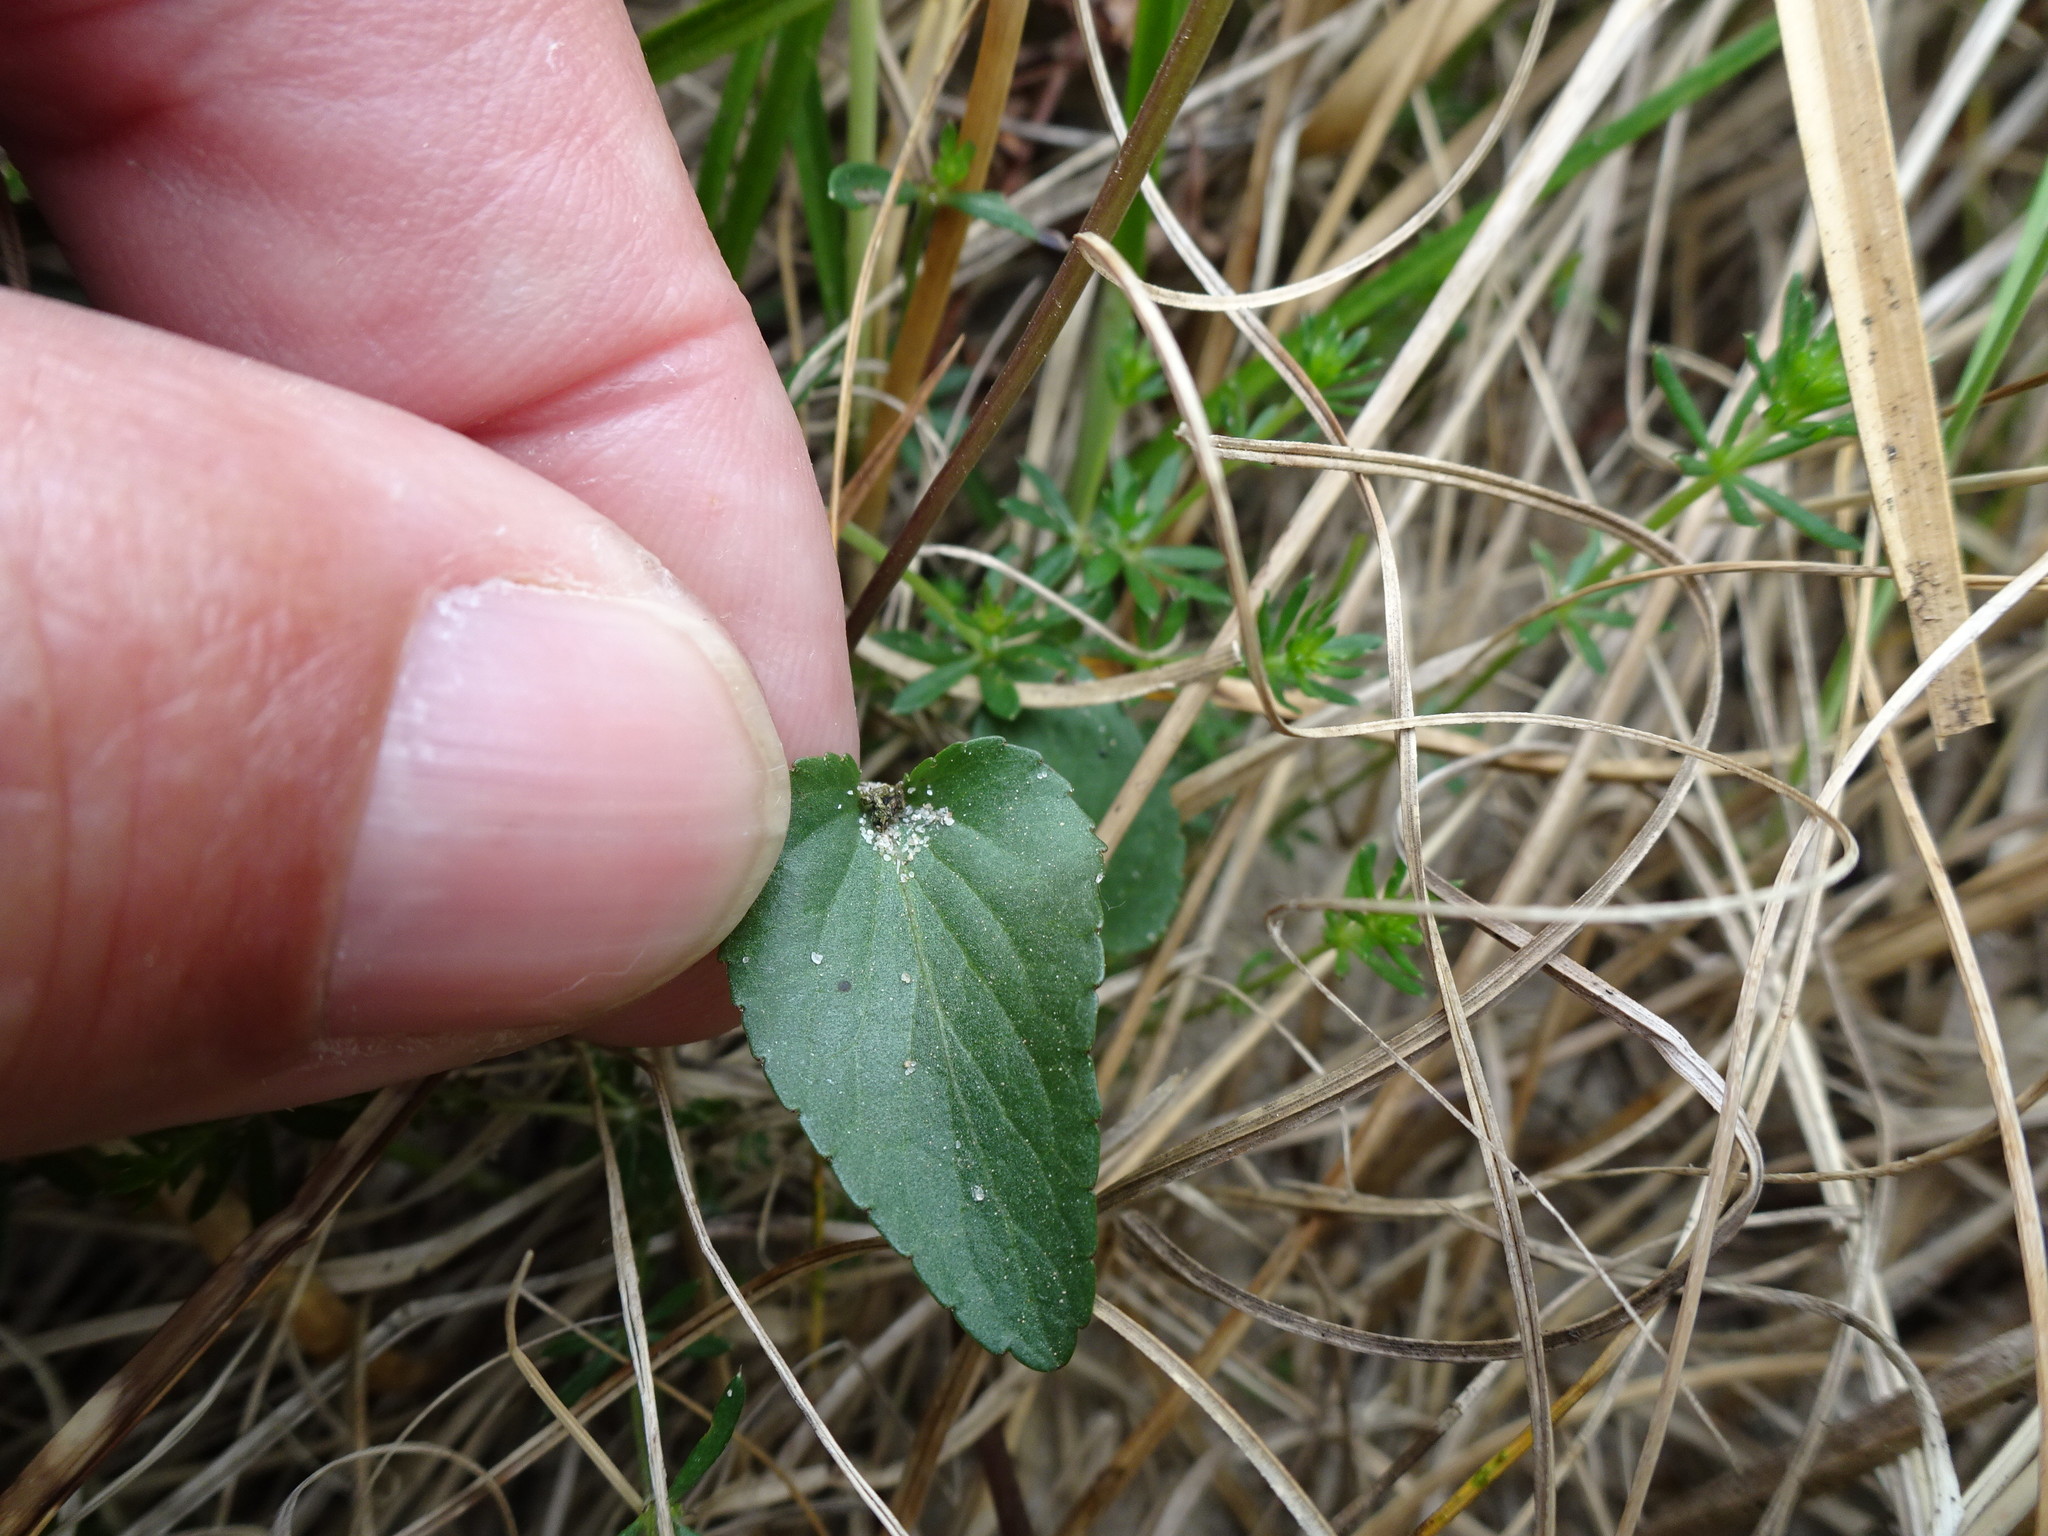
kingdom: Plantae
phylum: Tracheophyta
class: Magnoliopsida
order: Malpighiales
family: Violaceae
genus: Viola
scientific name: Viola canina
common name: Heath dog-violet
